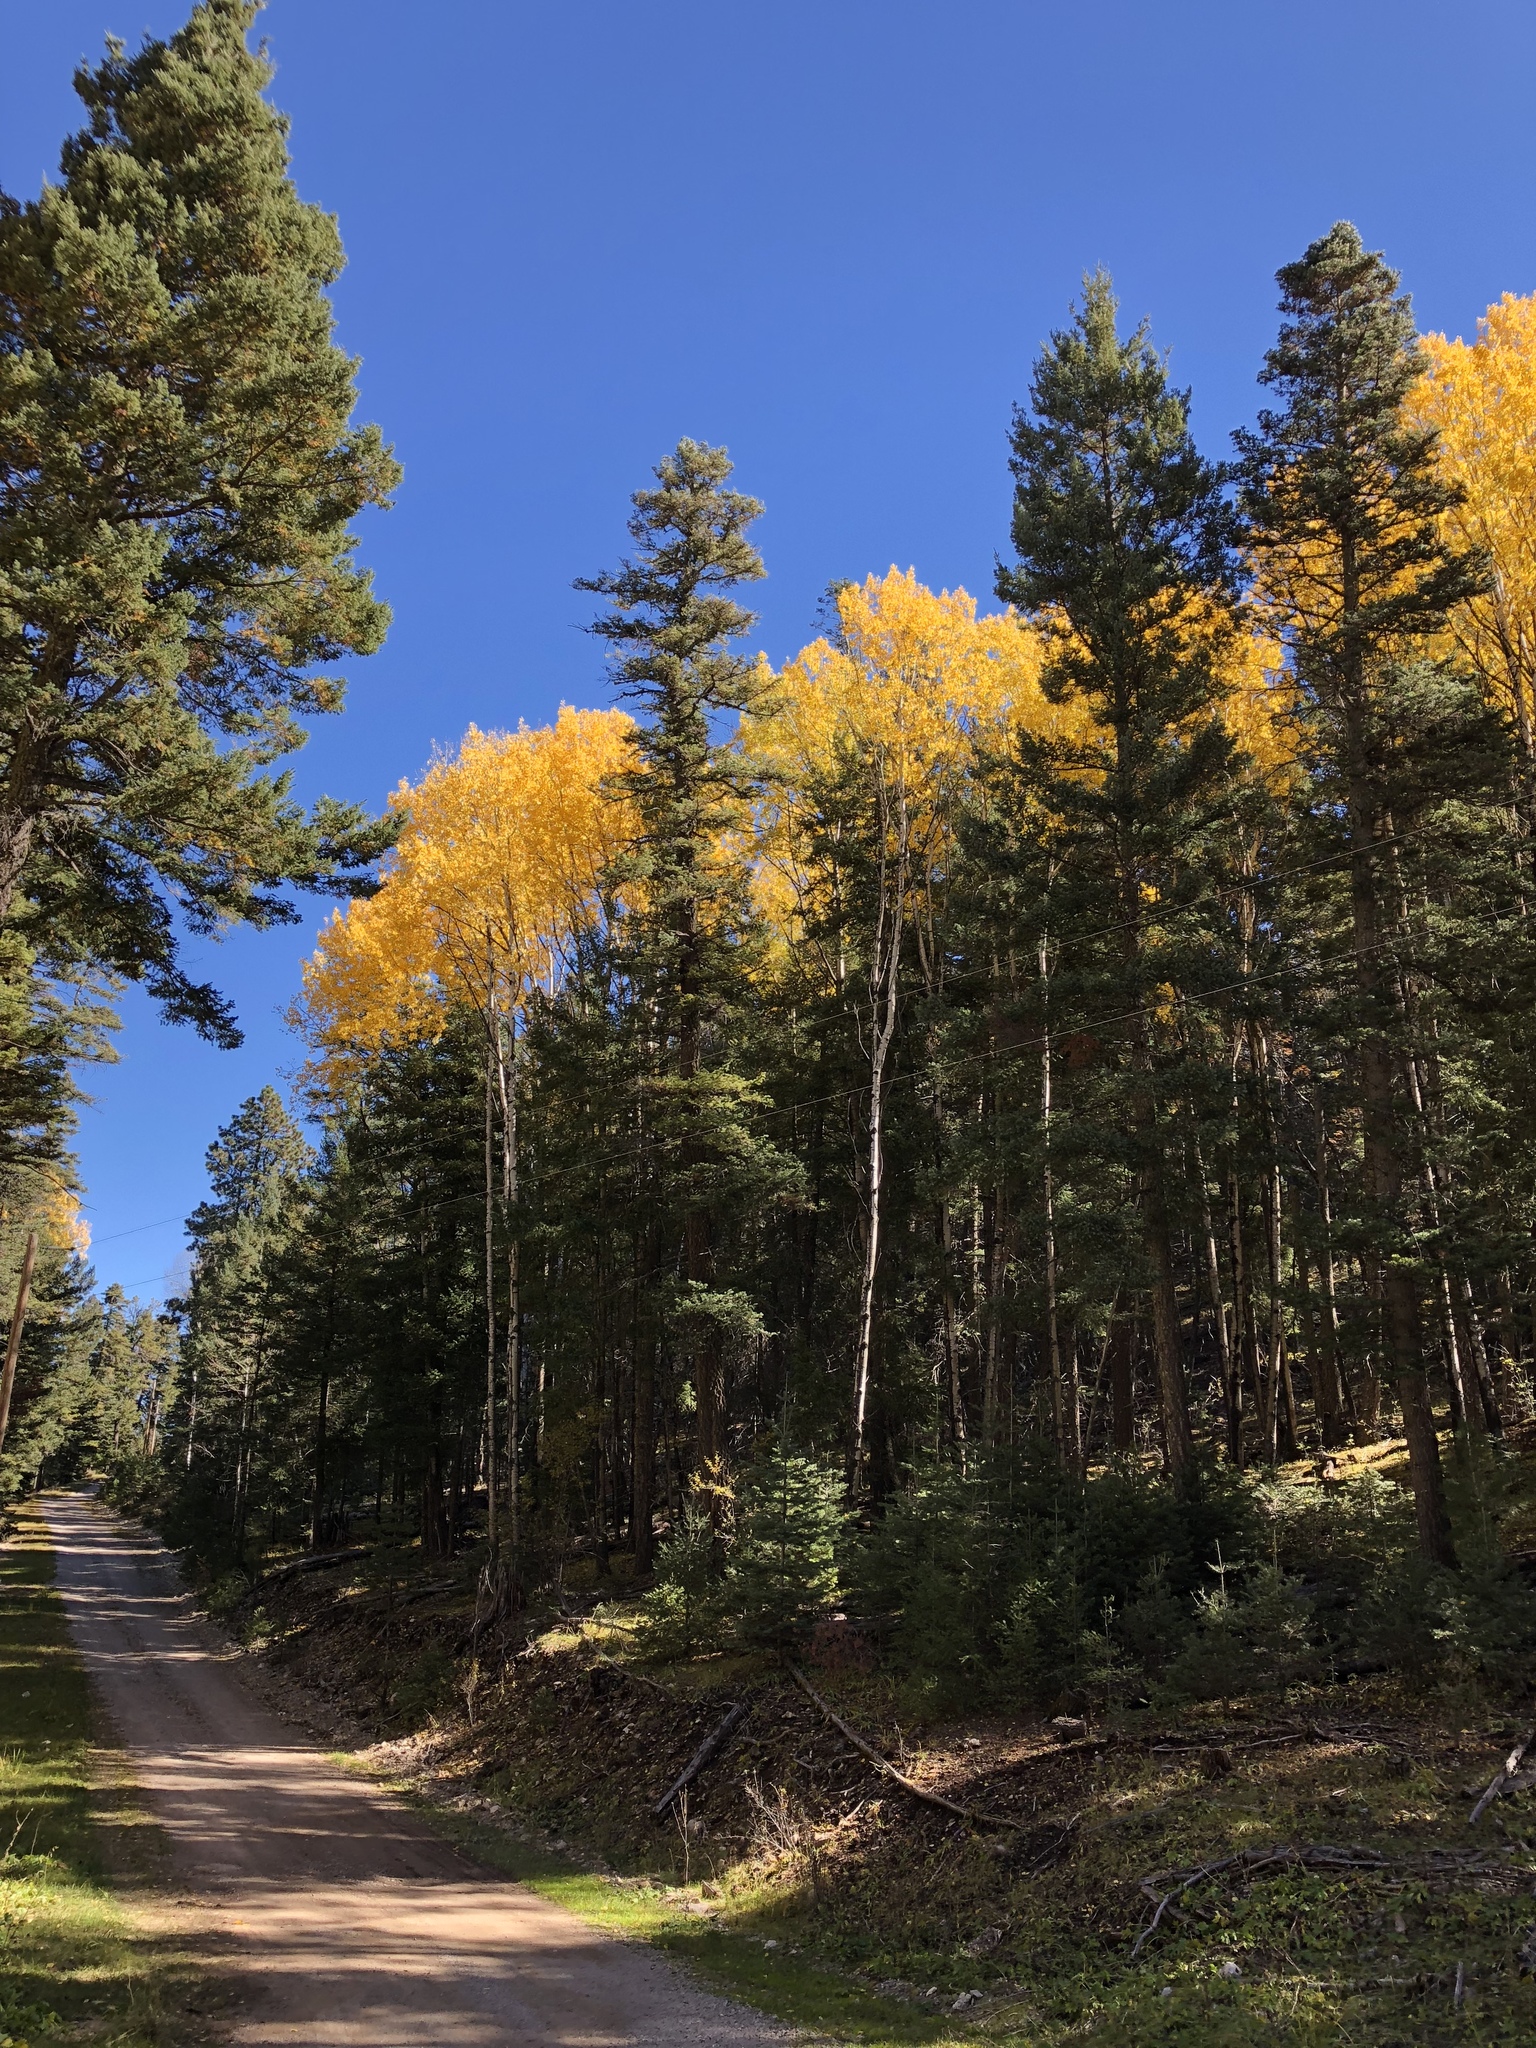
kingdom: Plantae
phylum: Tracheophyta
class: Magnoliopsida
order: Malpighiales
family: Salicaceae
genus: Populus
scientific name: Populus tremuloides
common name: Quaking aspen
